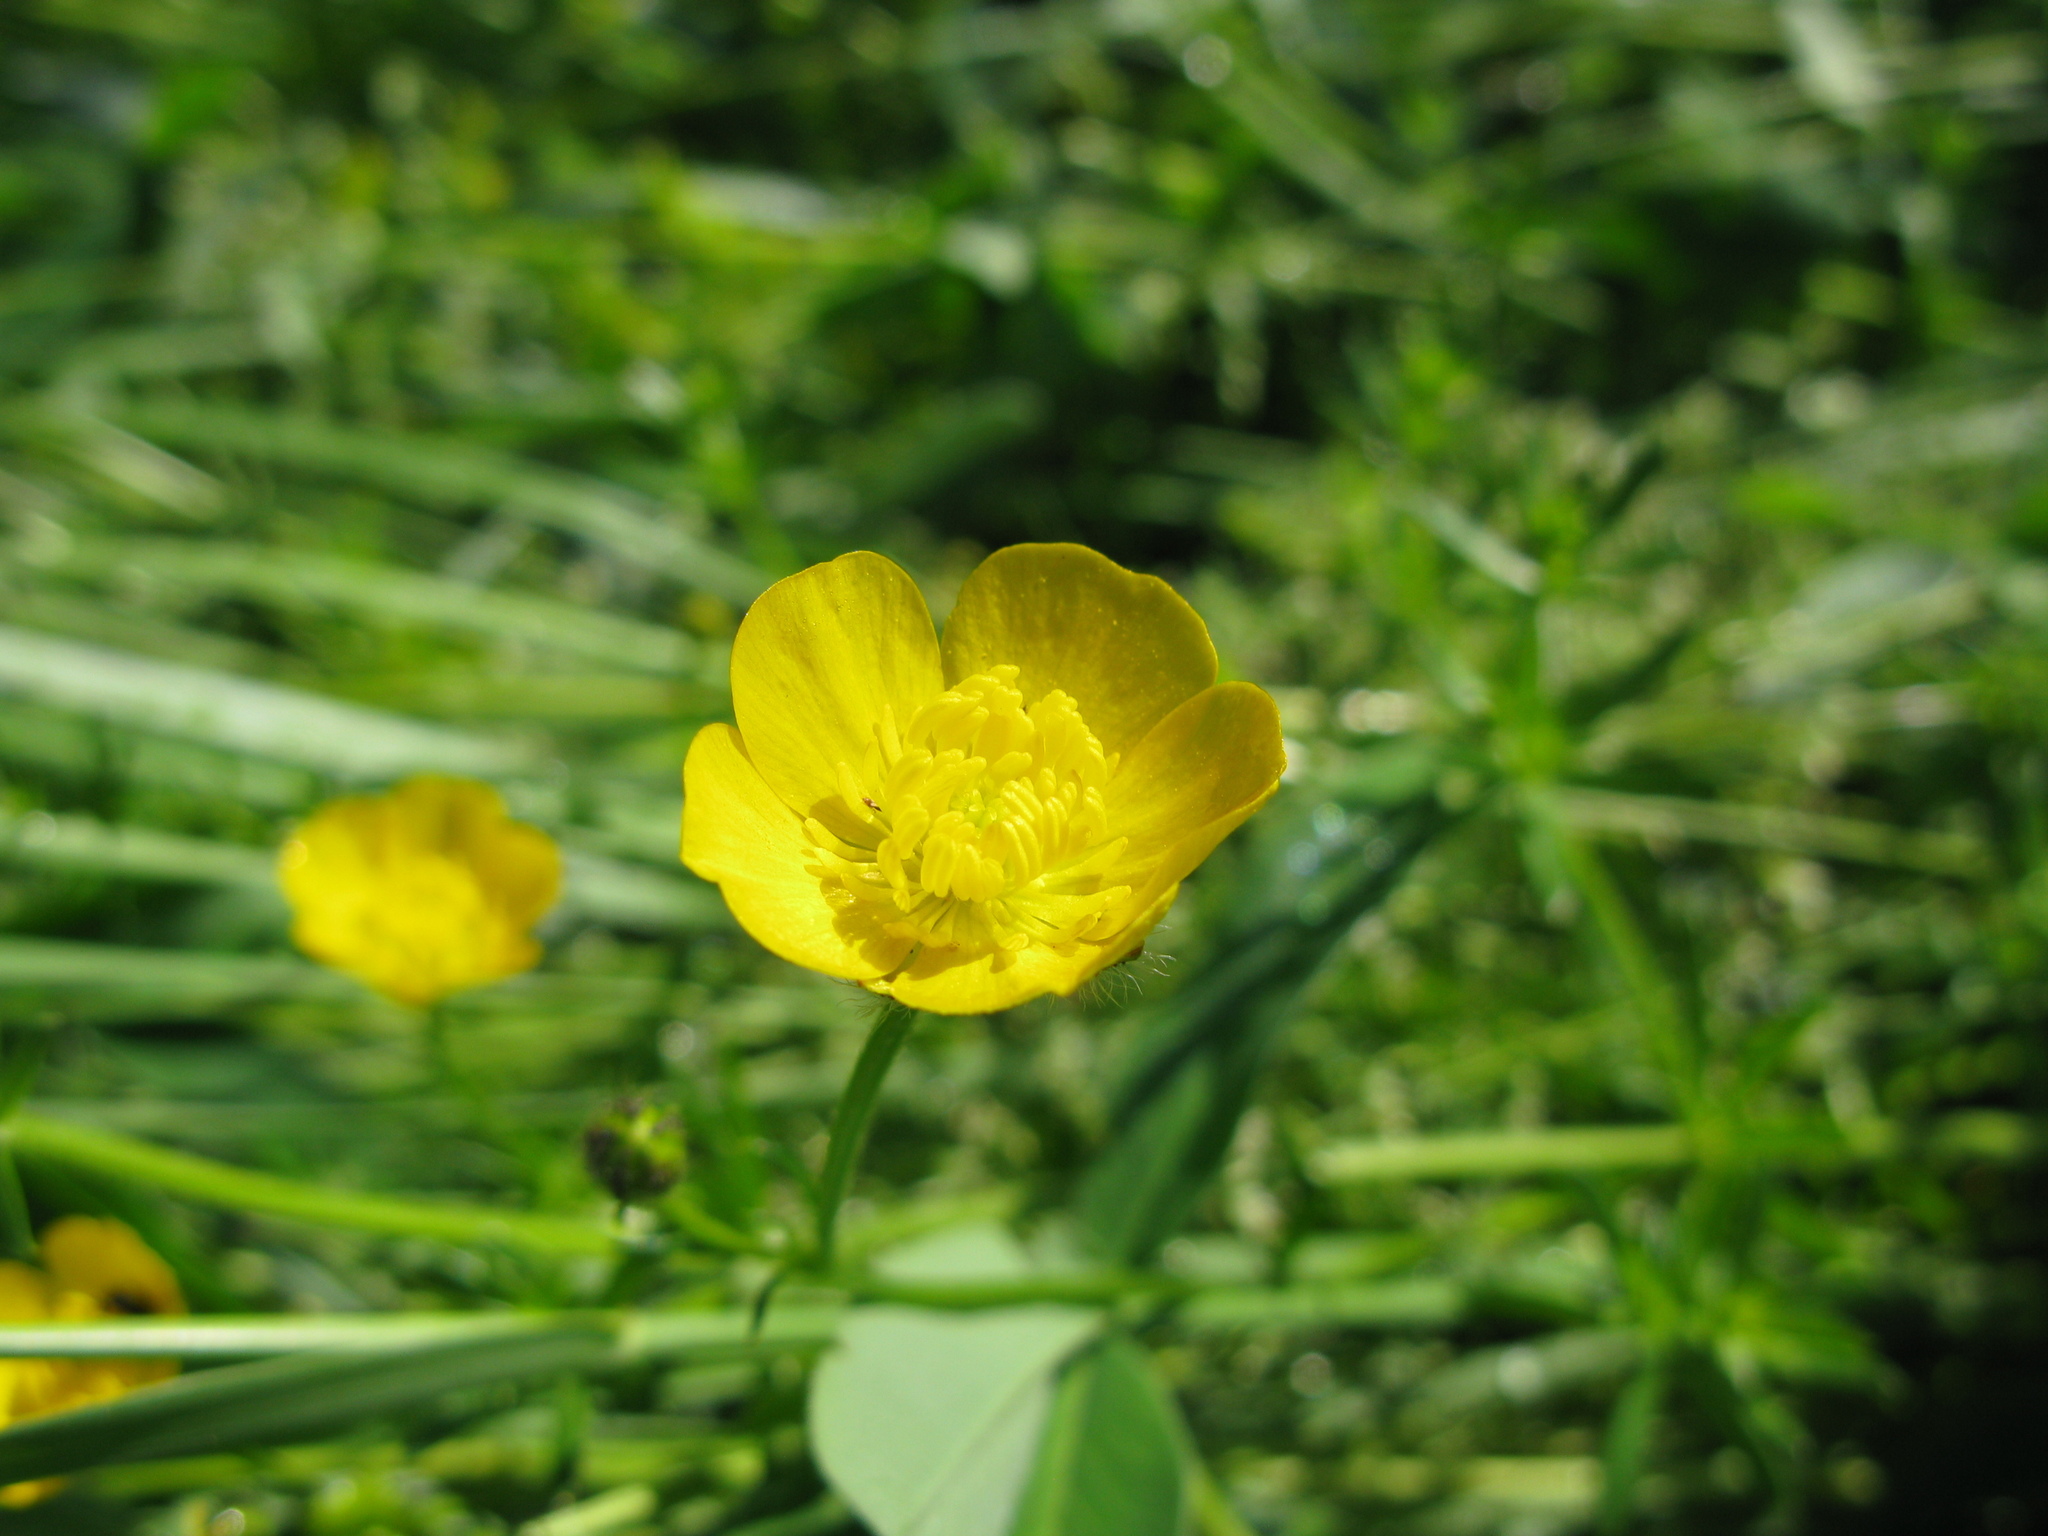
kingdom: Plantae
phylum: Tracheophyta
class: Magnoliopsida
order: Ranunculales
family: Ranunculaceae
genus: Ranunculus
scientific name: Ranunculus polyanthemos
